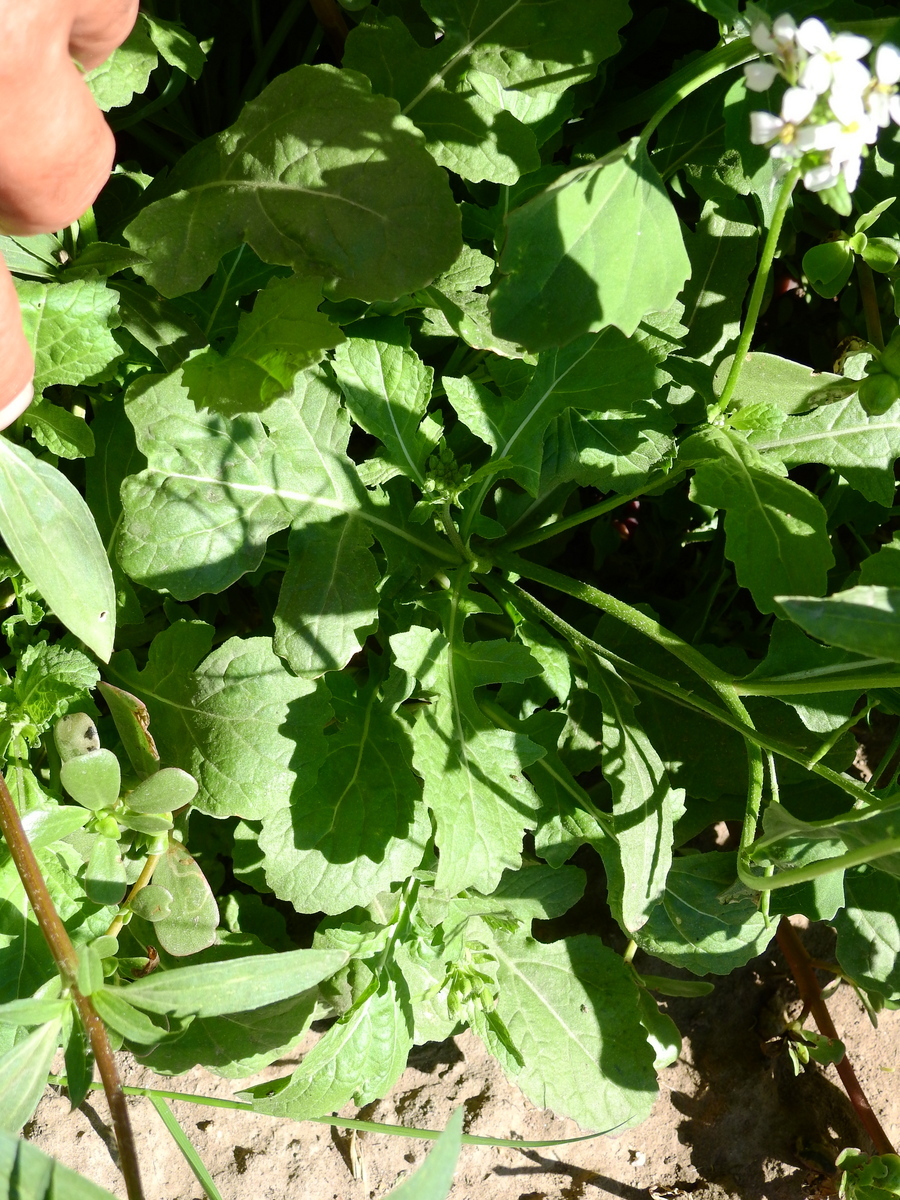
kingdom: Plantae
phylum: Tracheophyta
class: Magnoliopsida
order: Brassicales
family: Brassicaceae
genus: Diplotaxis
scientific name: Diplotaxis erucoides
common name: White rocket
